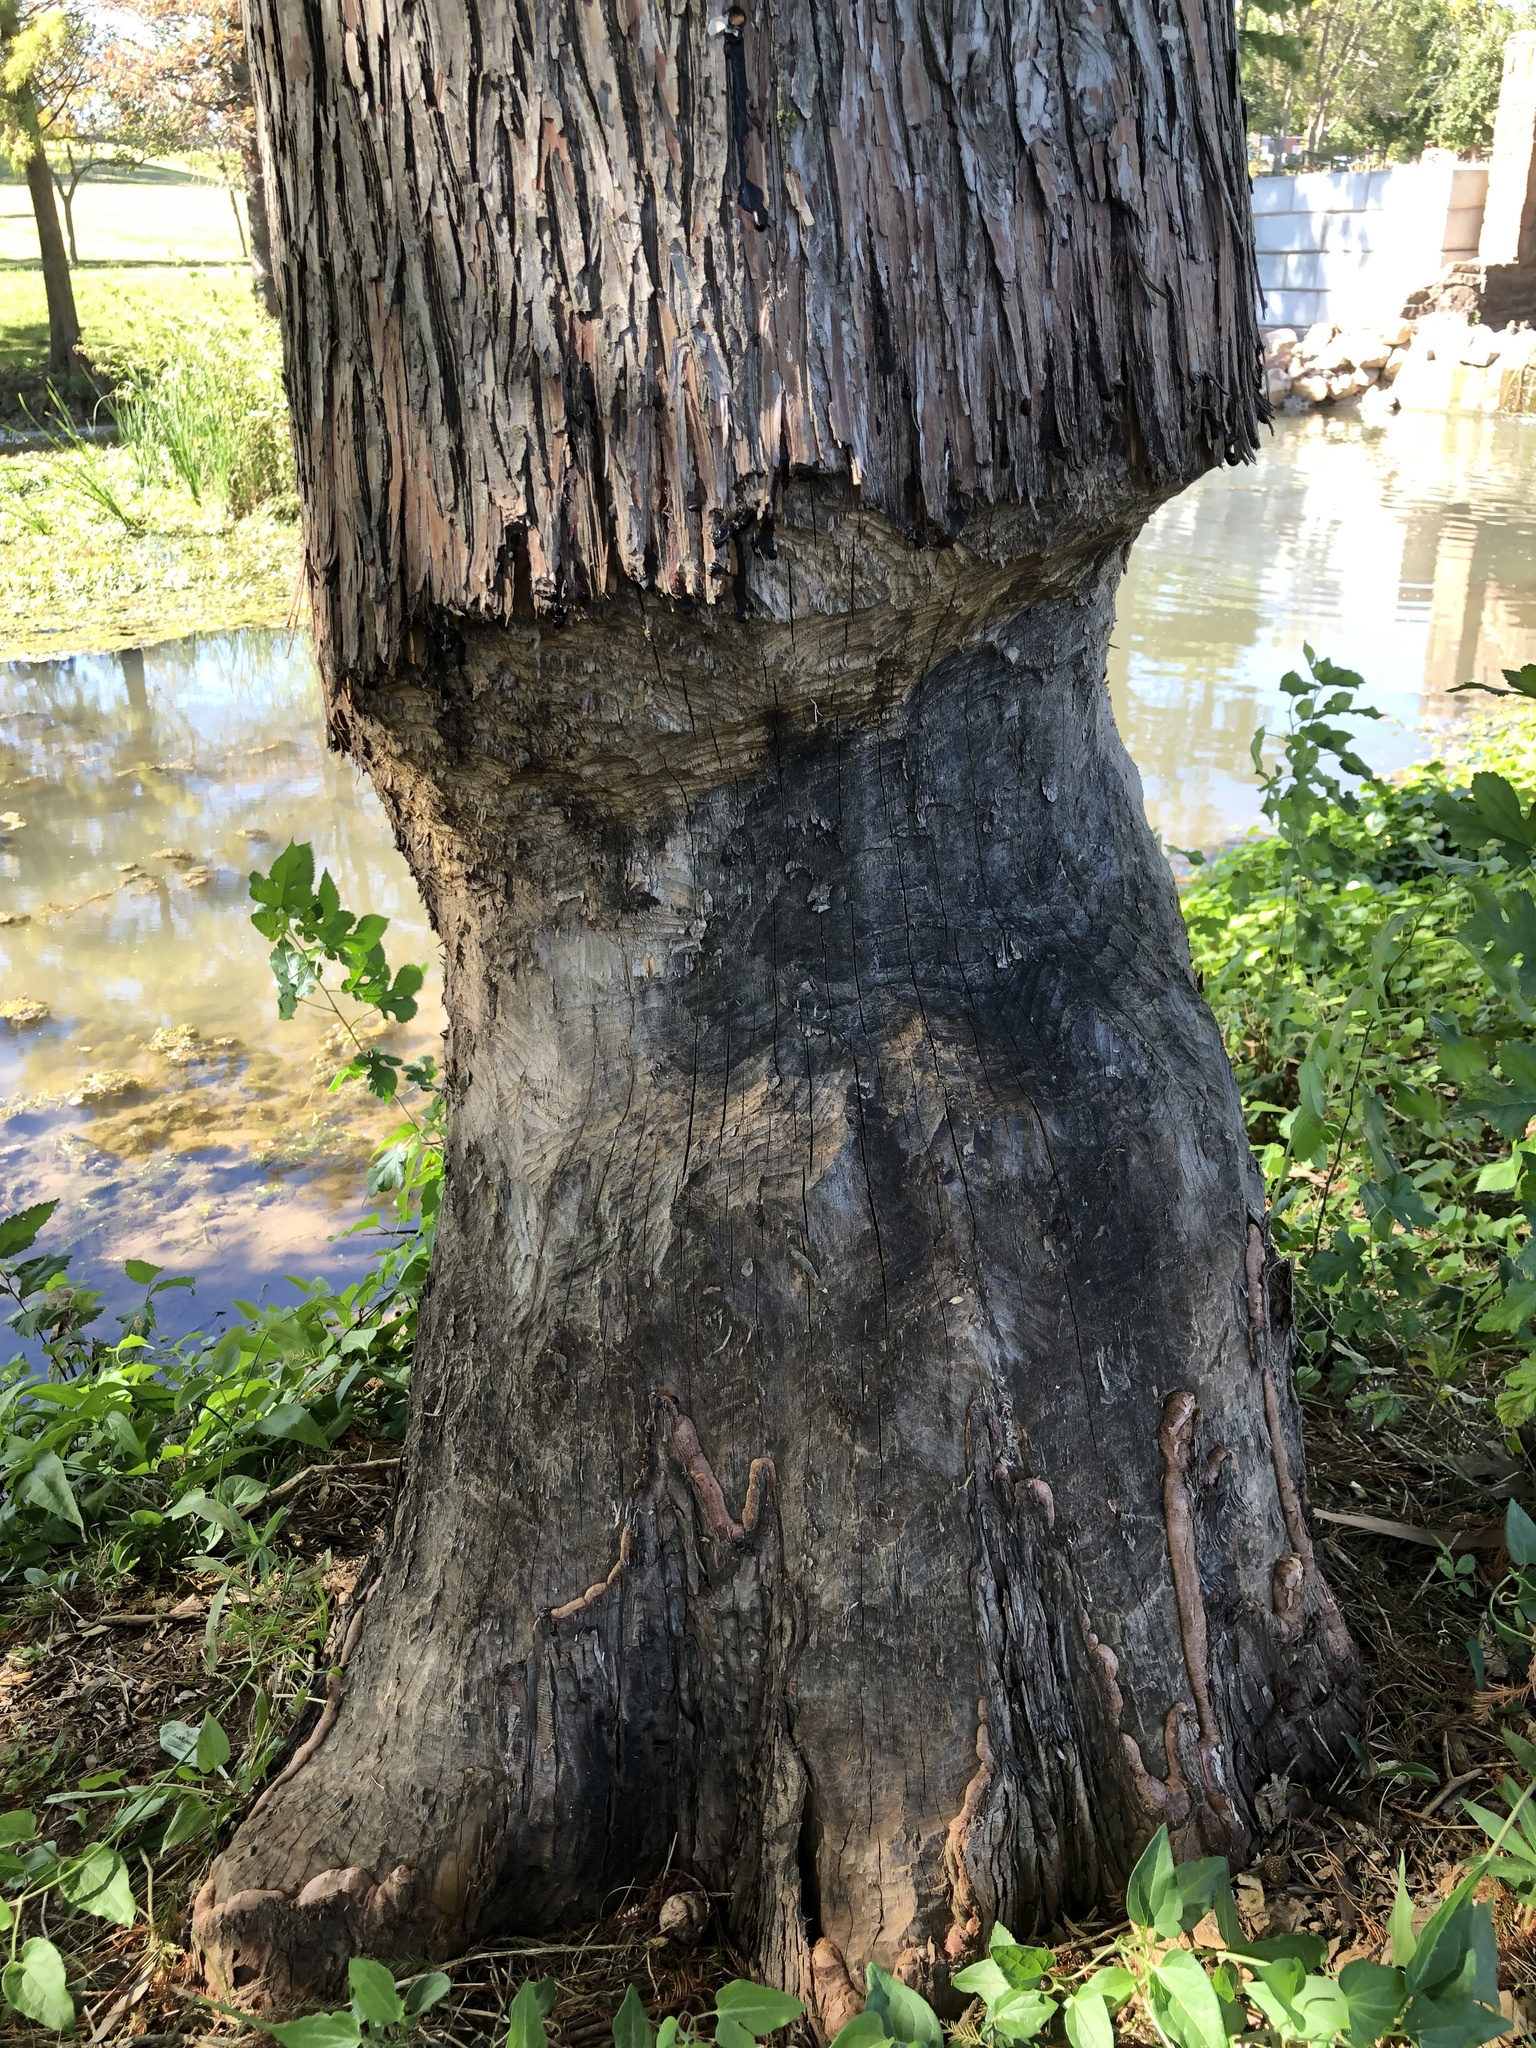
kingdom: Animalia
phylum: Chordata
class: Mammalia
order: Rodentia
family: Castoridae
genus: Castor
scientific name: Castor canadensis
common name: American beaver
